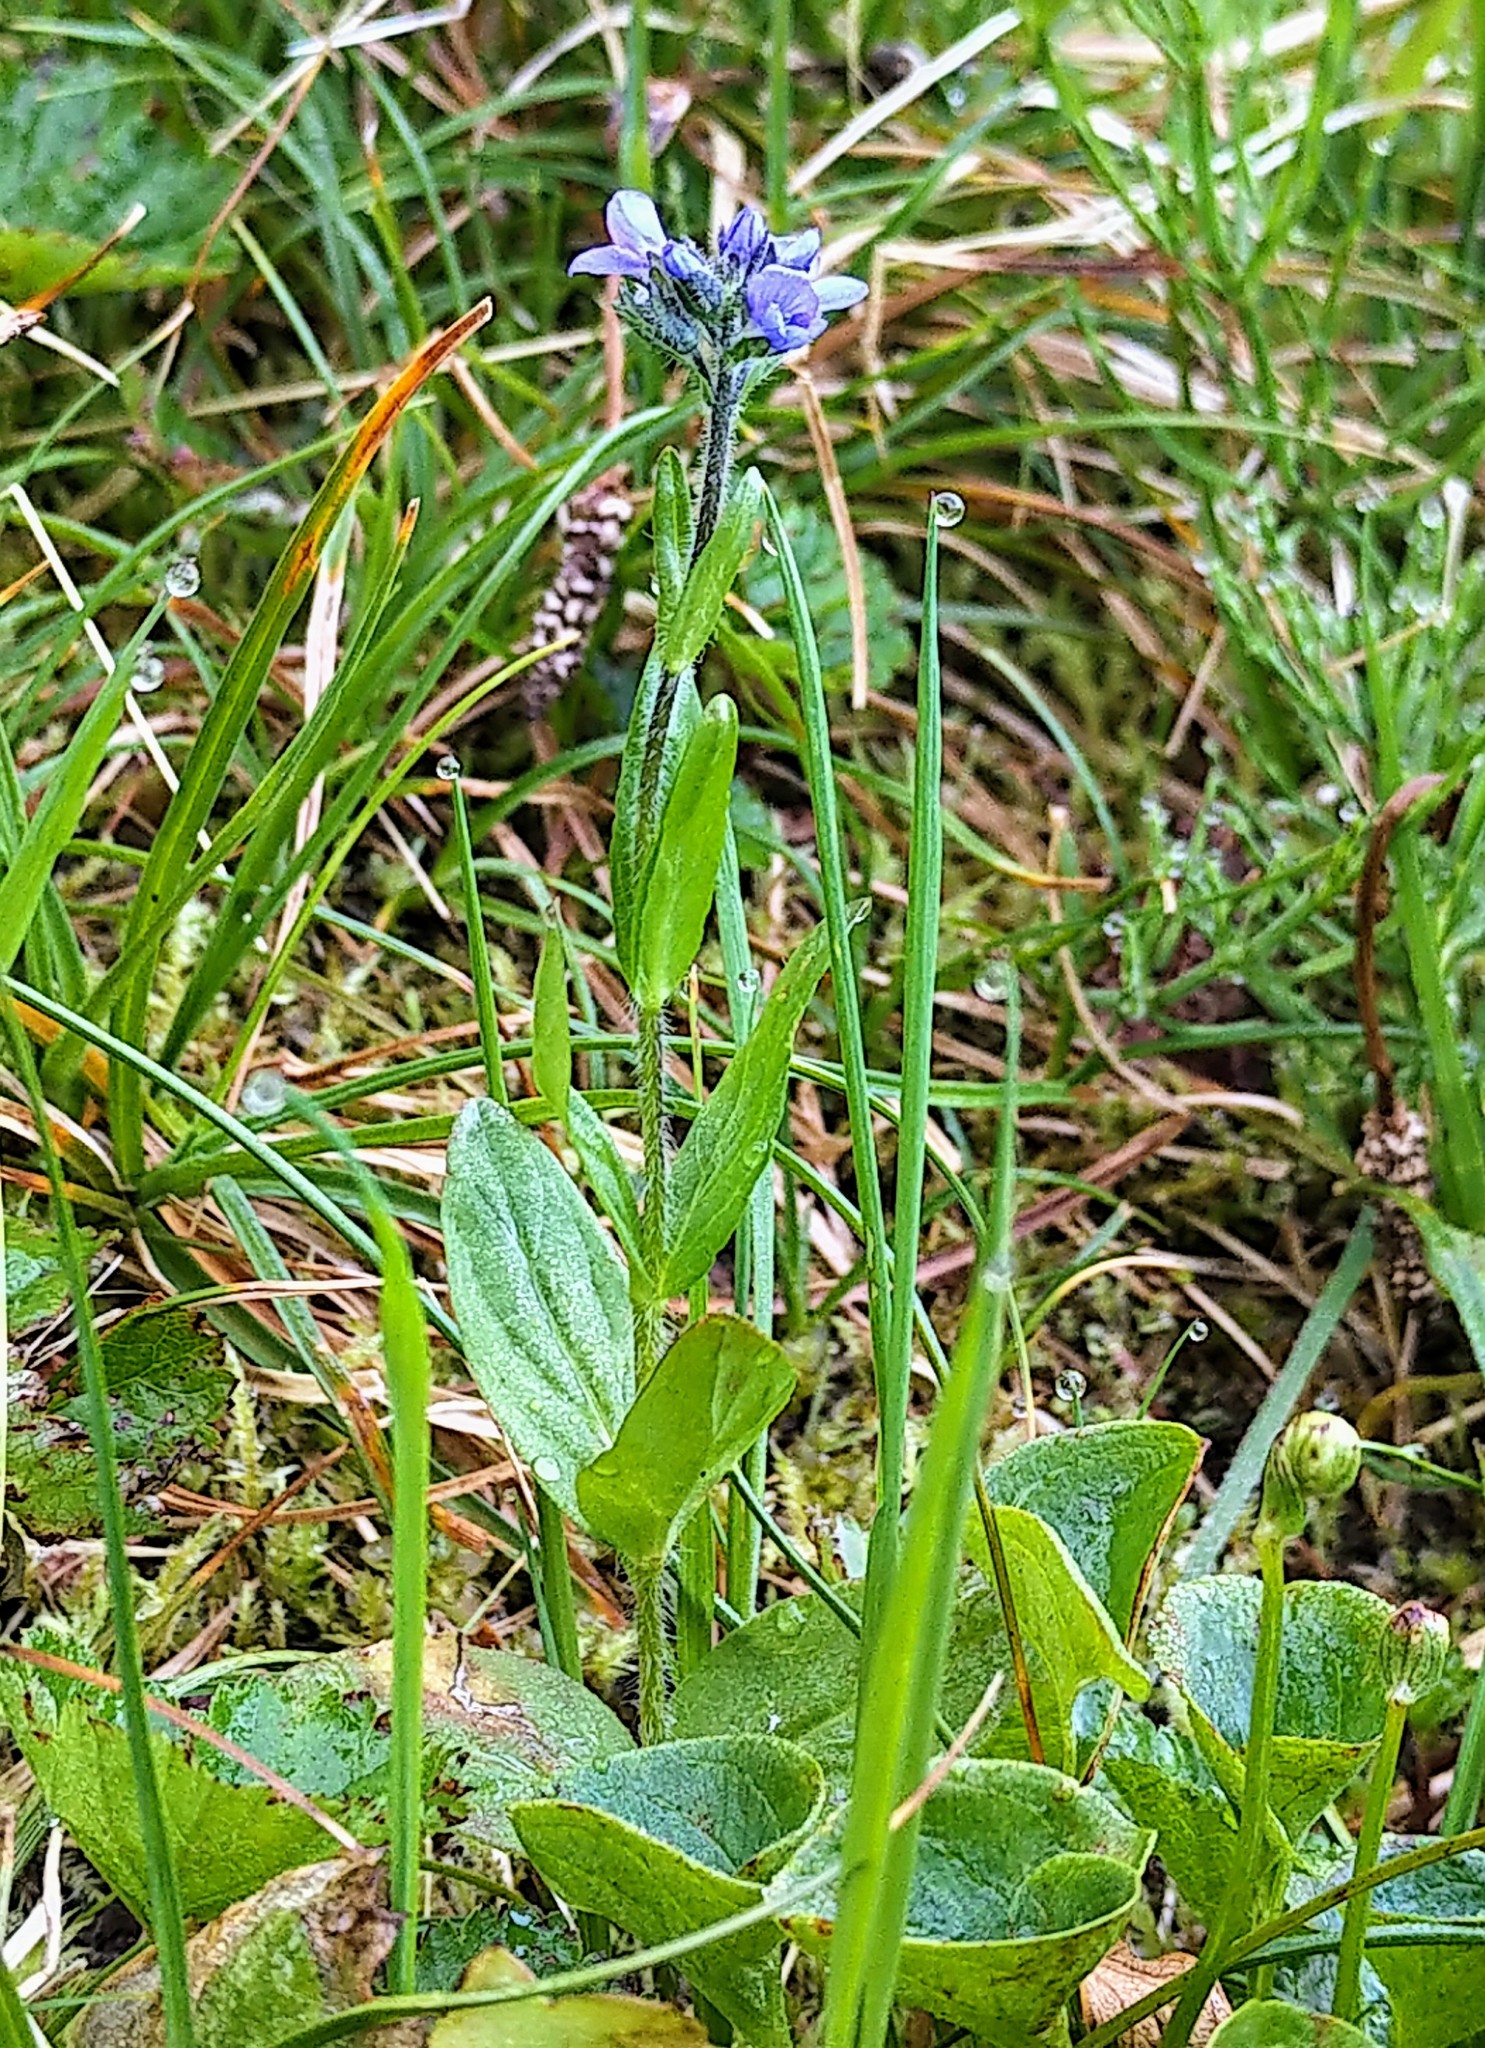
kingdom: Plantae
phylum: Tracheophyta
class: Magnoliopsida
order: Lamiales
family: Plantaginaceae
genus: Veronica
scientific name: Veronica wormskjoldii
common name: American alpine speedwell
